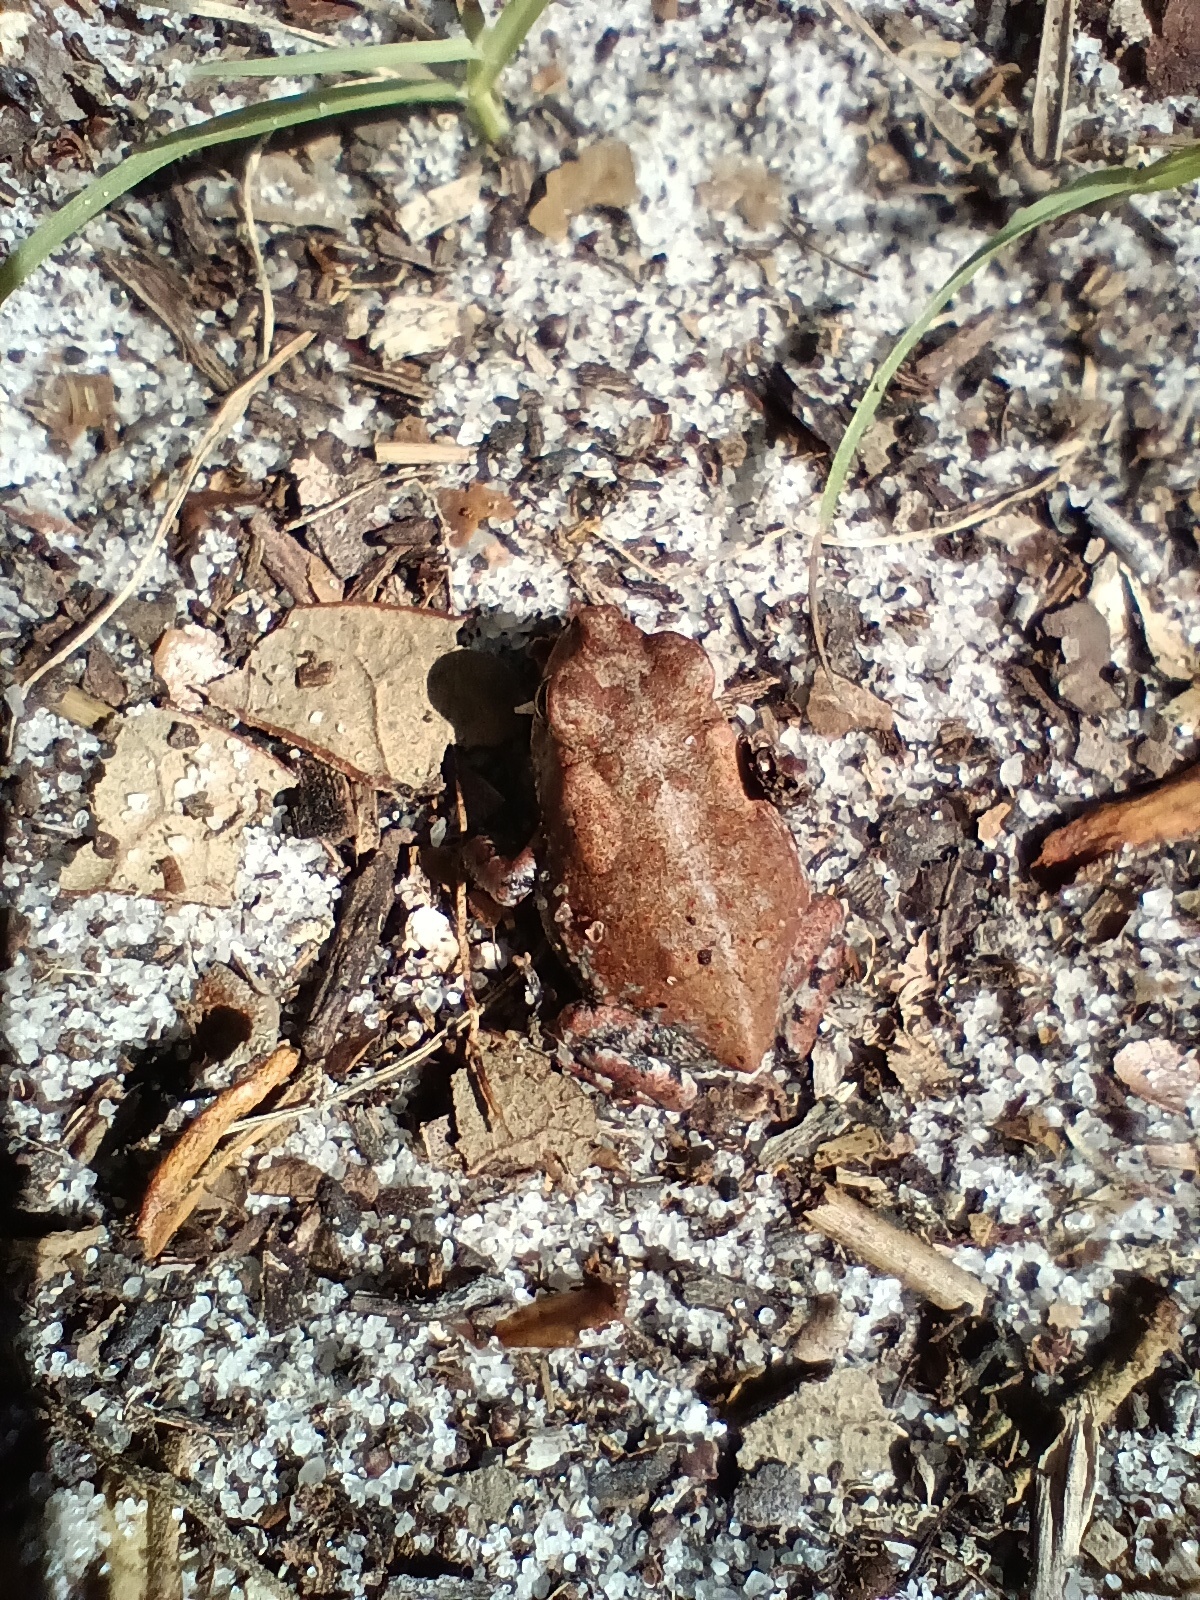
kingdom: Animalia
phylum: Chordata
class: Amphibia
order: Anura
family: Bufonidae
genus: Anaxyrus
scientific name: Anaxyrus terrestris
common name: Southern toad
